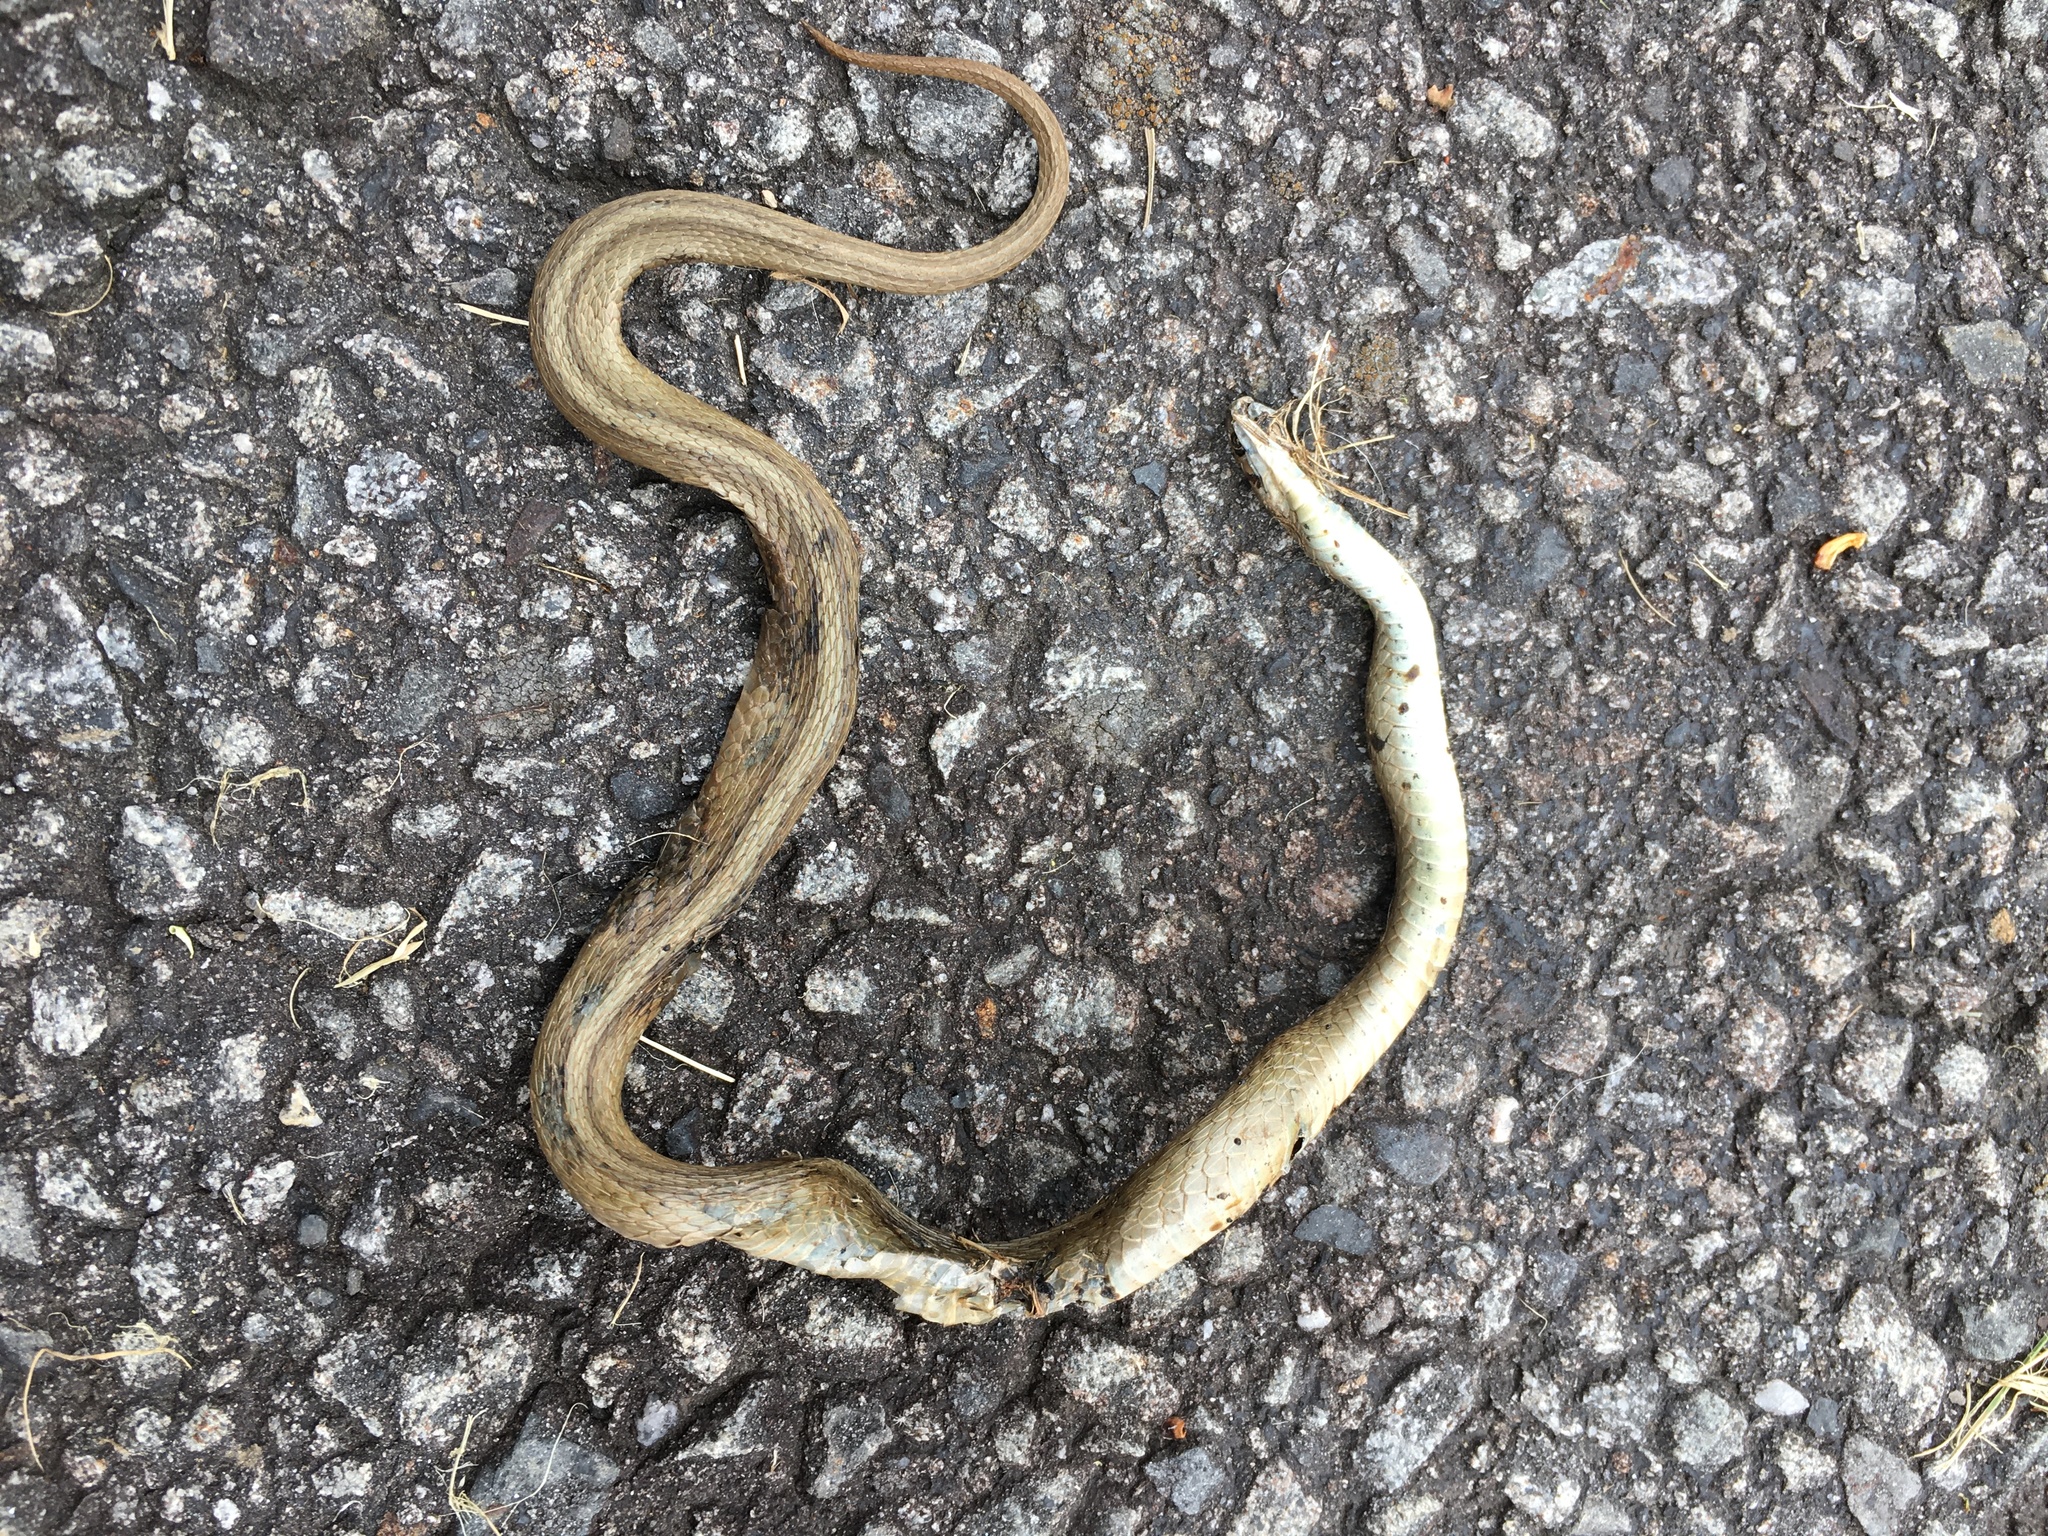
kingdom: Animalia
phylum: Chordata
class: Squamata
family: Colubridae
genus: Storeria
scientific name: Storeria dekayi
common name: (dekay’s) brown snake
